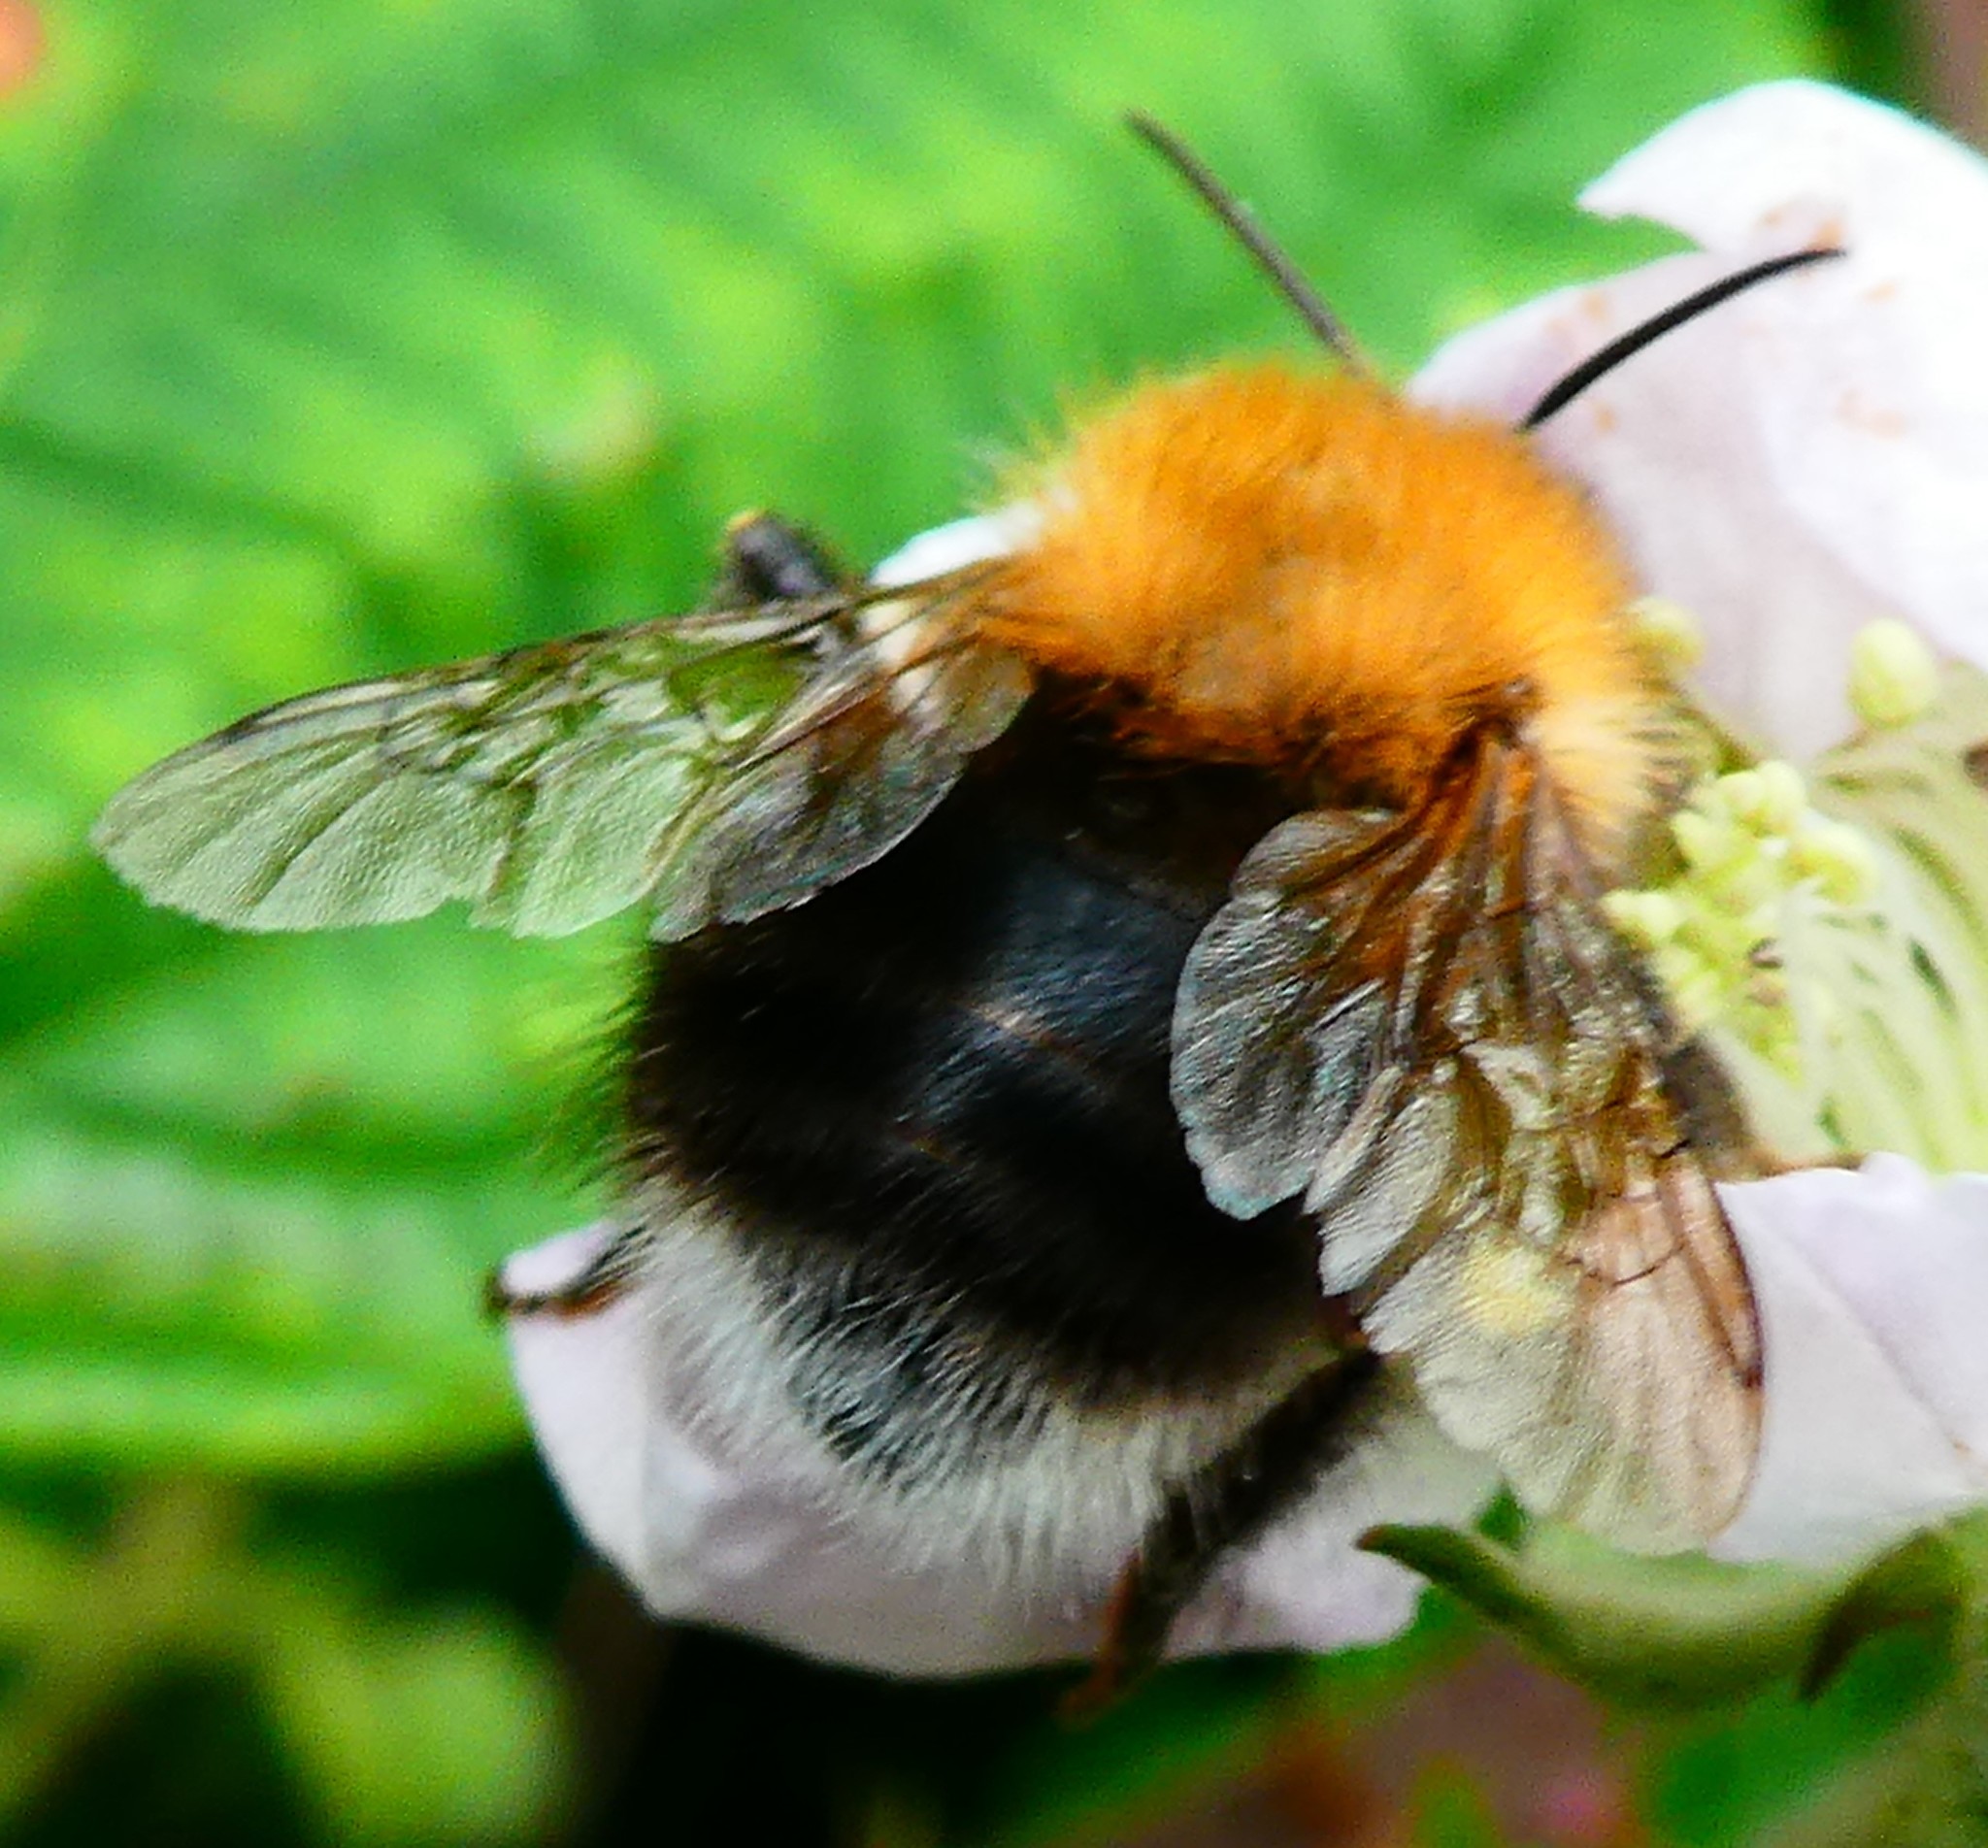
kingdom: Animalia
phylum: Arthropoda
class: Insecta
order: Hymenoptera
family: Apidae
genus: Bombus
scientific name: Bombus hypnorum
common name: New garden bumblebee
